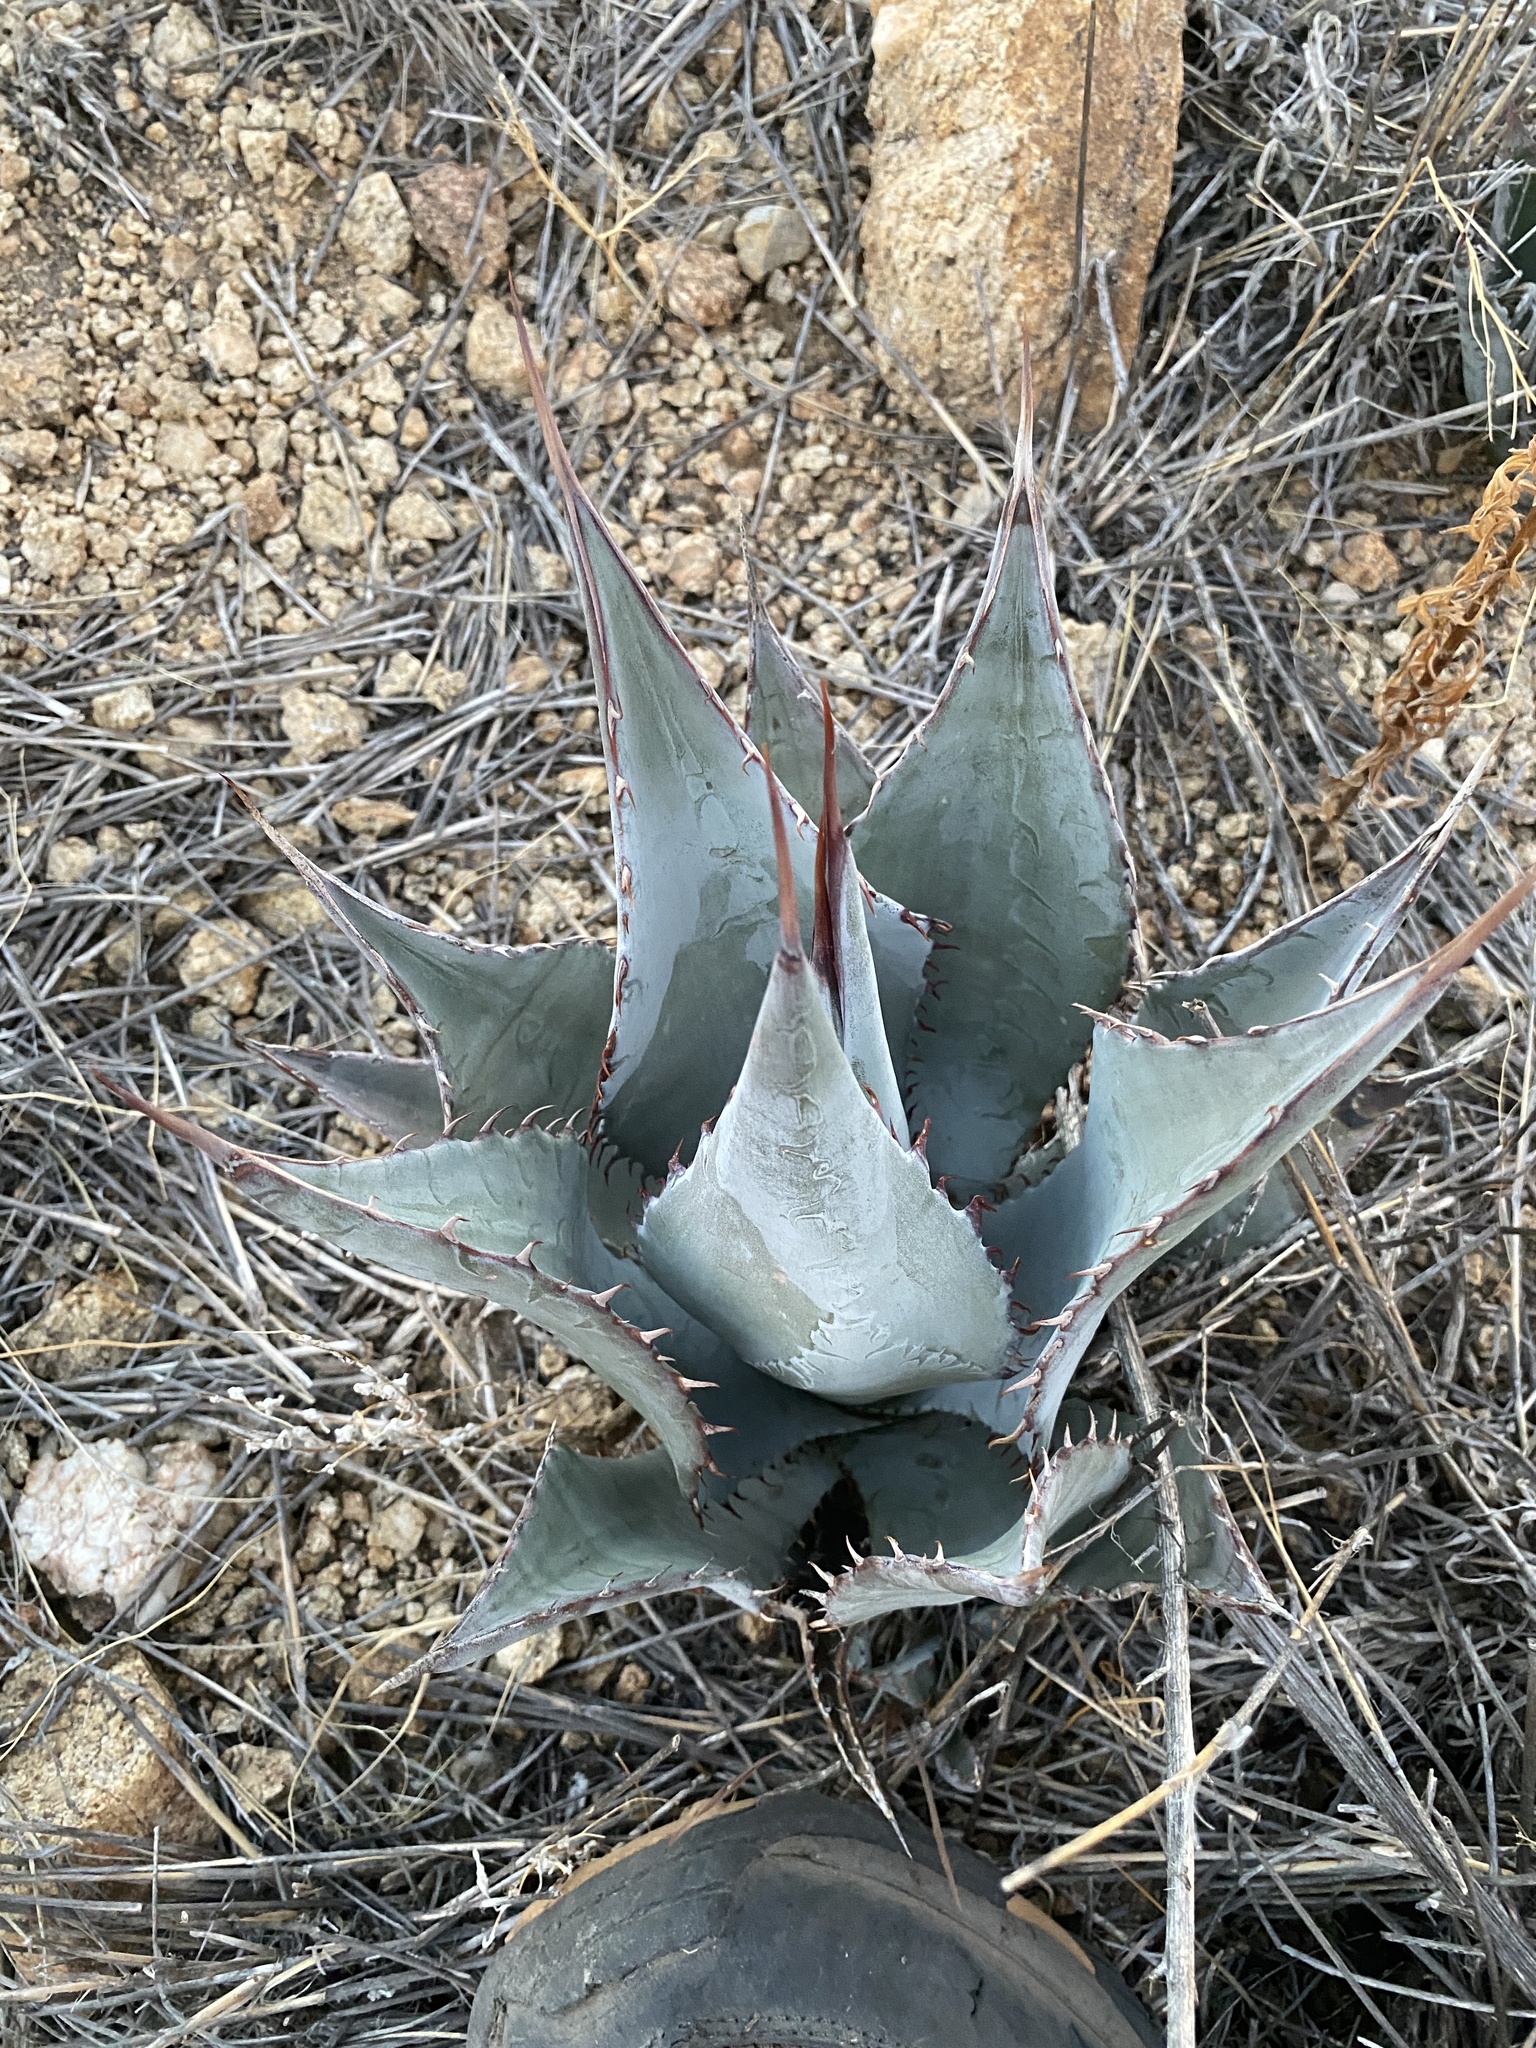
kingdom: Plantae
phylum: Tracheophyta
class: Liliopsida
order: Asparagales
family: Asparagaceae
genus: Agave
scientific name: Agave parryi
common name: Parry's agave
